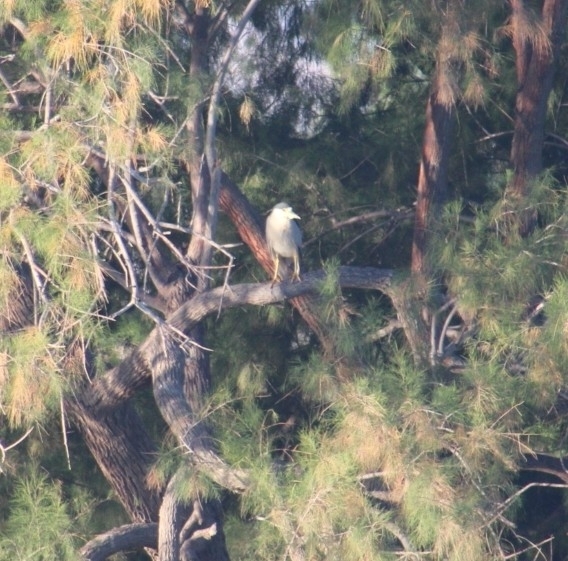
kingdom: Animalia
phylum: Chordata
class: Aves
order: Pelecaniformes
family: Ardeidae
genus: Nycticorax
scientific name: Nycticorax nycticorax
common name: Black-crowned night heron
